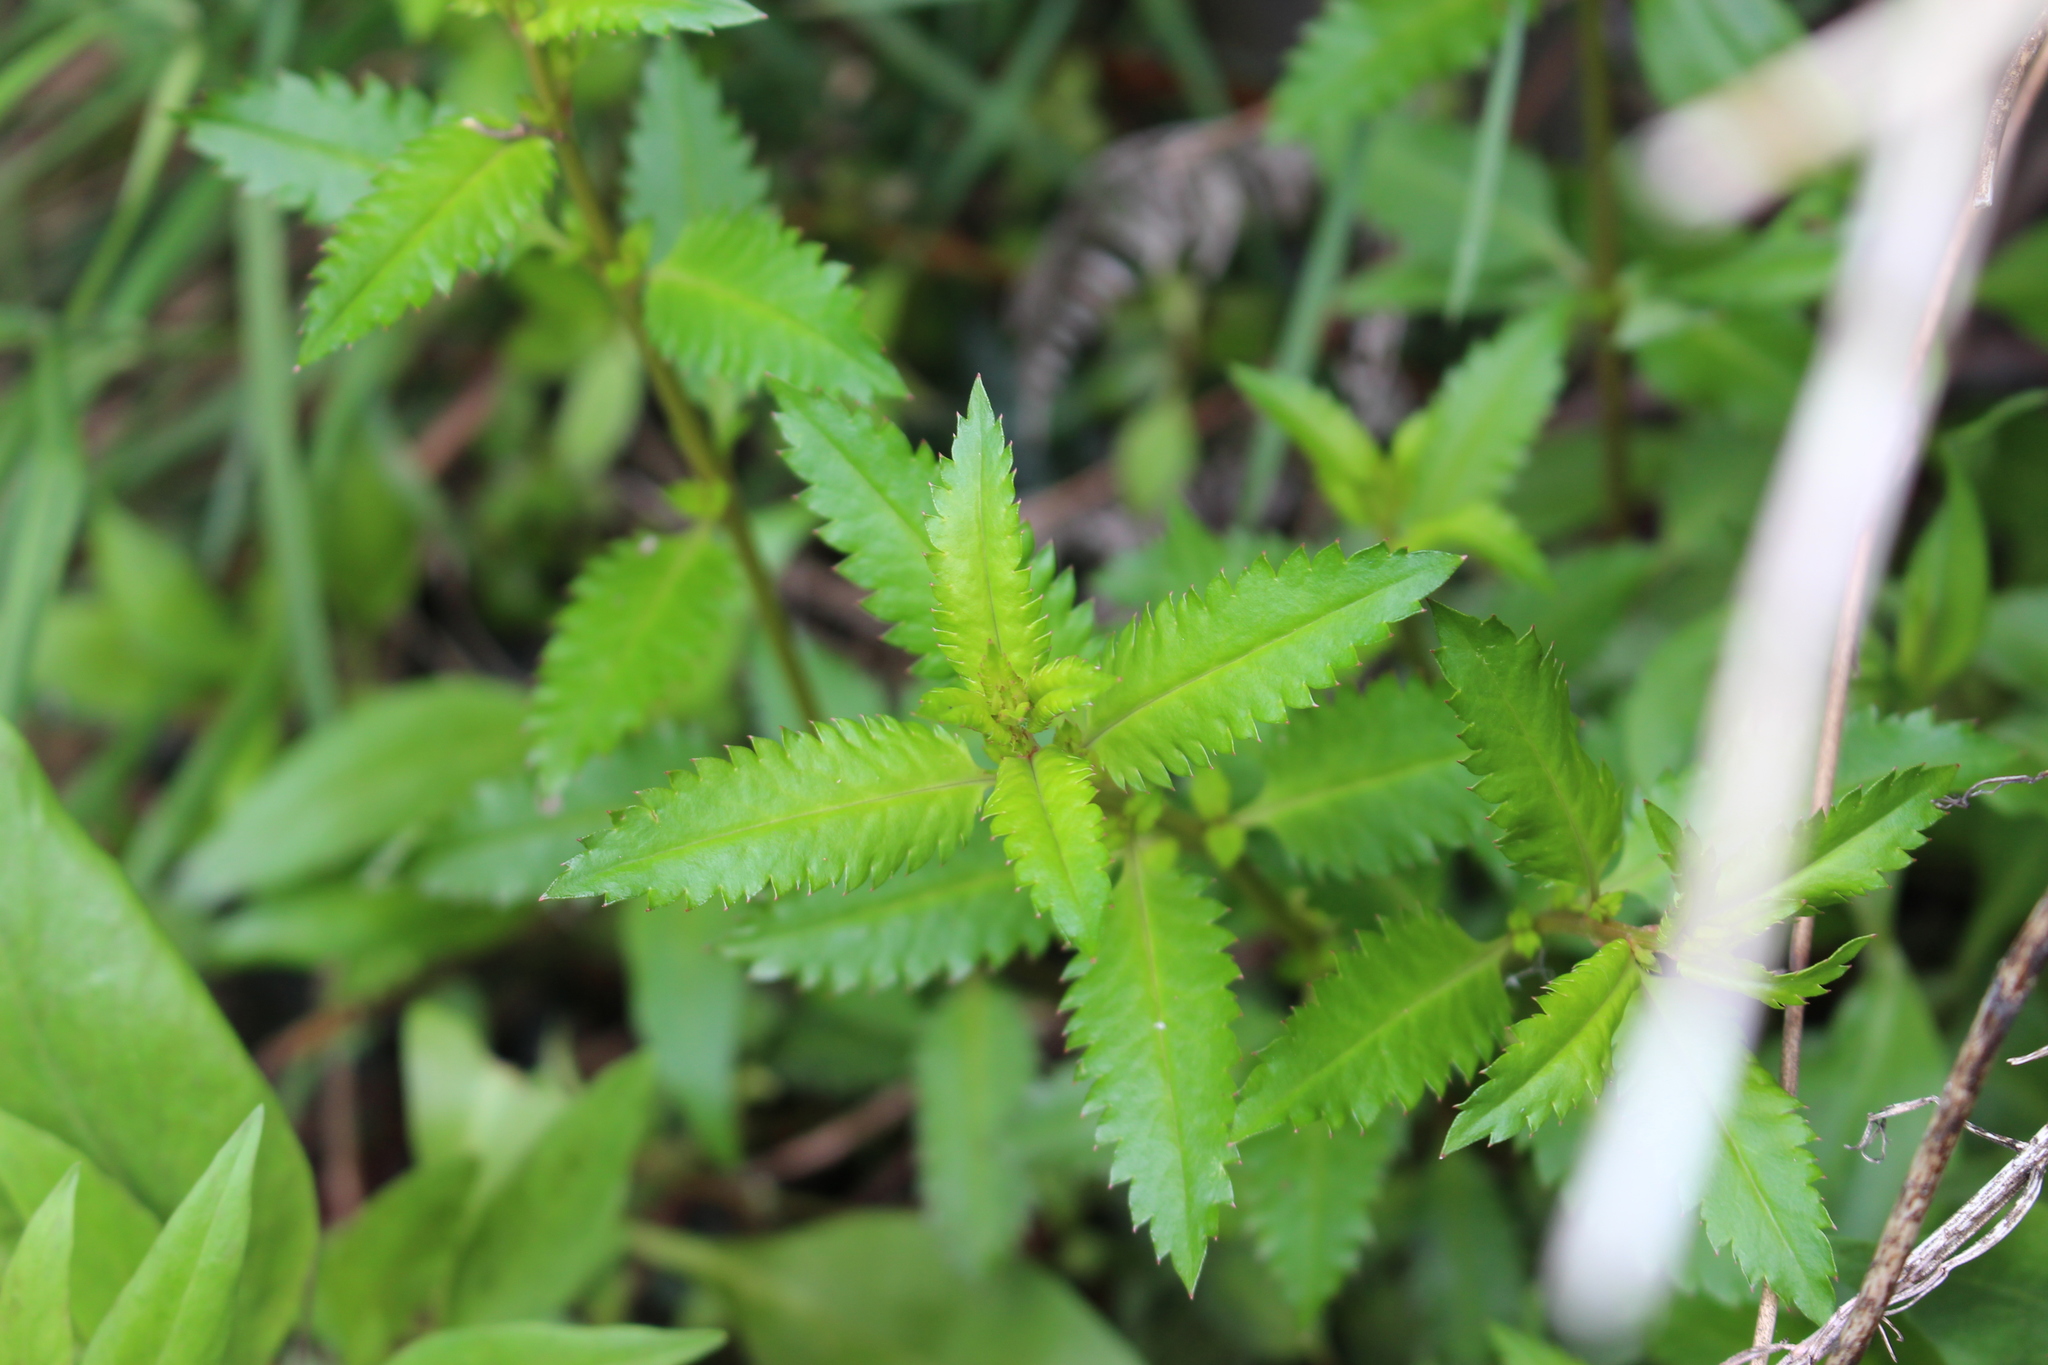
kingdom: Plantae
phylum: Tracheophyta
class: Magnoliopsida
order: Saxifragales
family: Haloragaceae
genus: Haloragis
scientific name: Haloragis erecta
